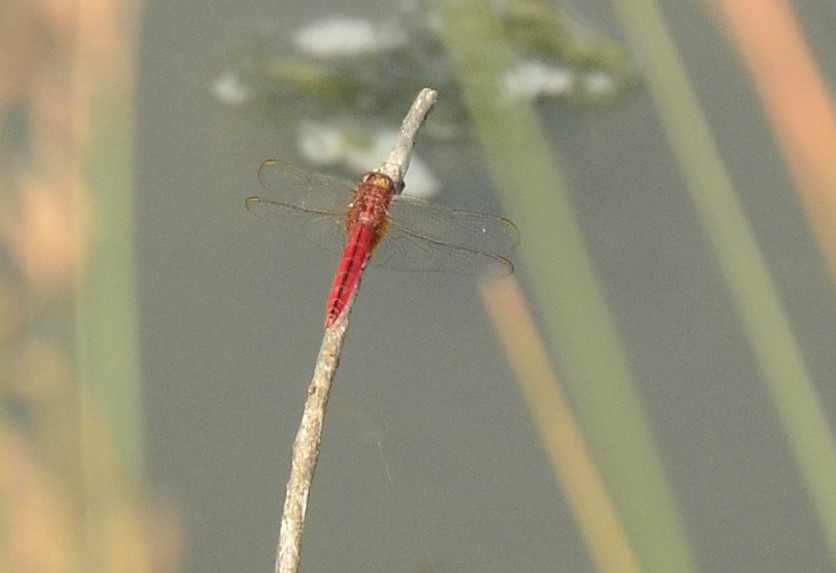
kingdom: Animalia
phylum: Arthropoda
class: Insecta
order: Odonata
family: Libellulidae
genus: Crocothemis
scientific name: Crocothemis servilia
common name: Scarlet skimmer
